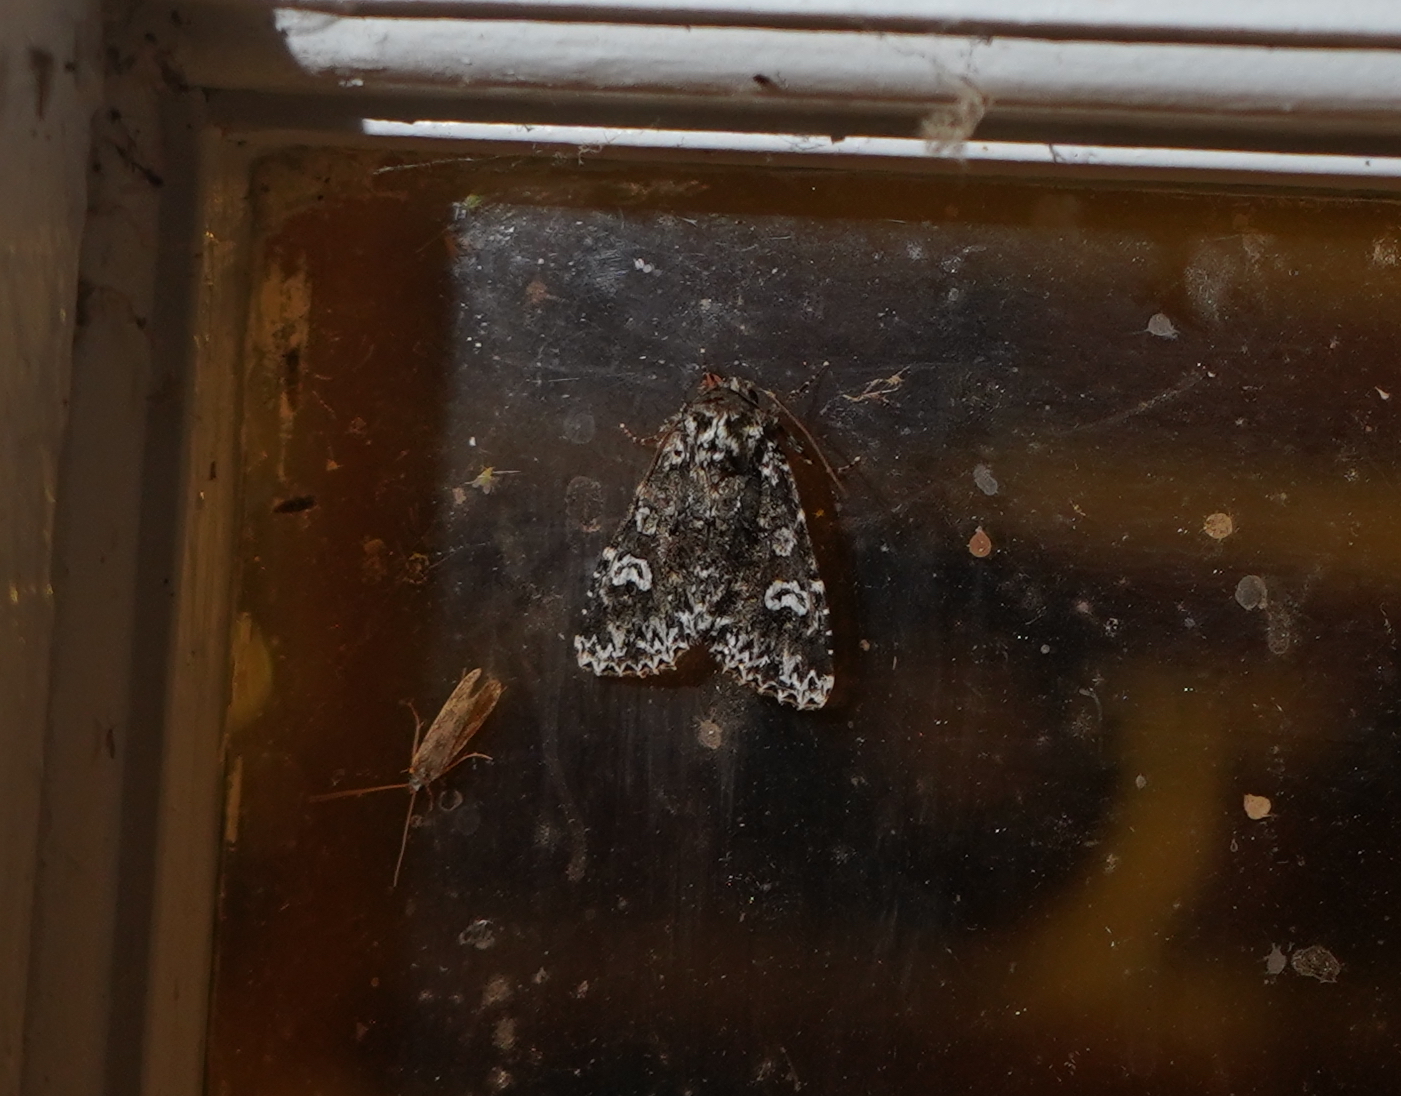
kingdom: Animalia
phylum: Arthropoda
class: Insecta
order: Lepidoptera
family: Noctuidae
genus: Melanchra
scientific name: Melanchra adjuncta
